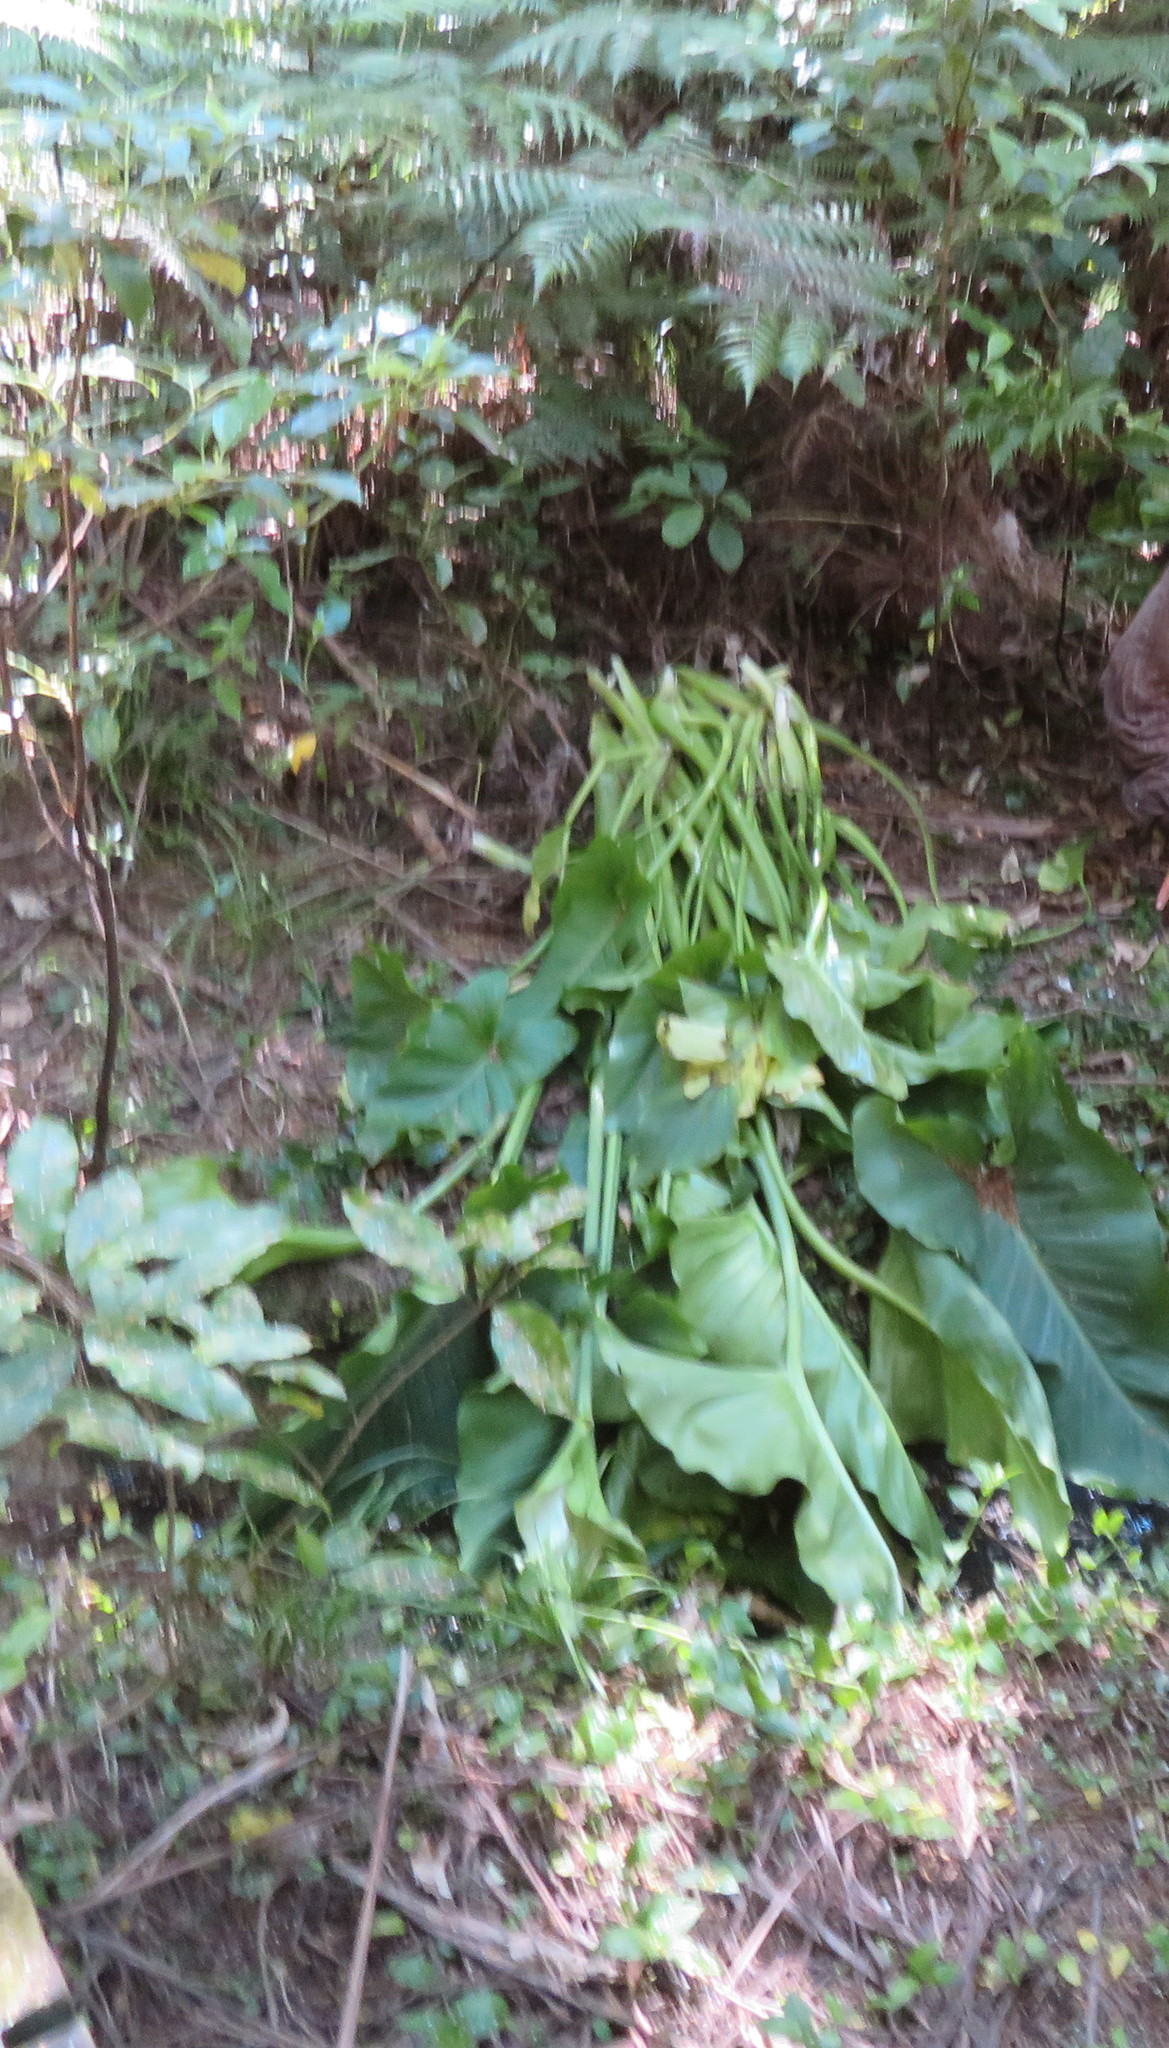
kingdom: Plantae
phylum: Tracheophyta
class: Liliopsida
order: Alismatales
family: Araceae
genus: Zantedeschia
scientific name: Zantedeschia aethiopica
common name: Altar-lily
